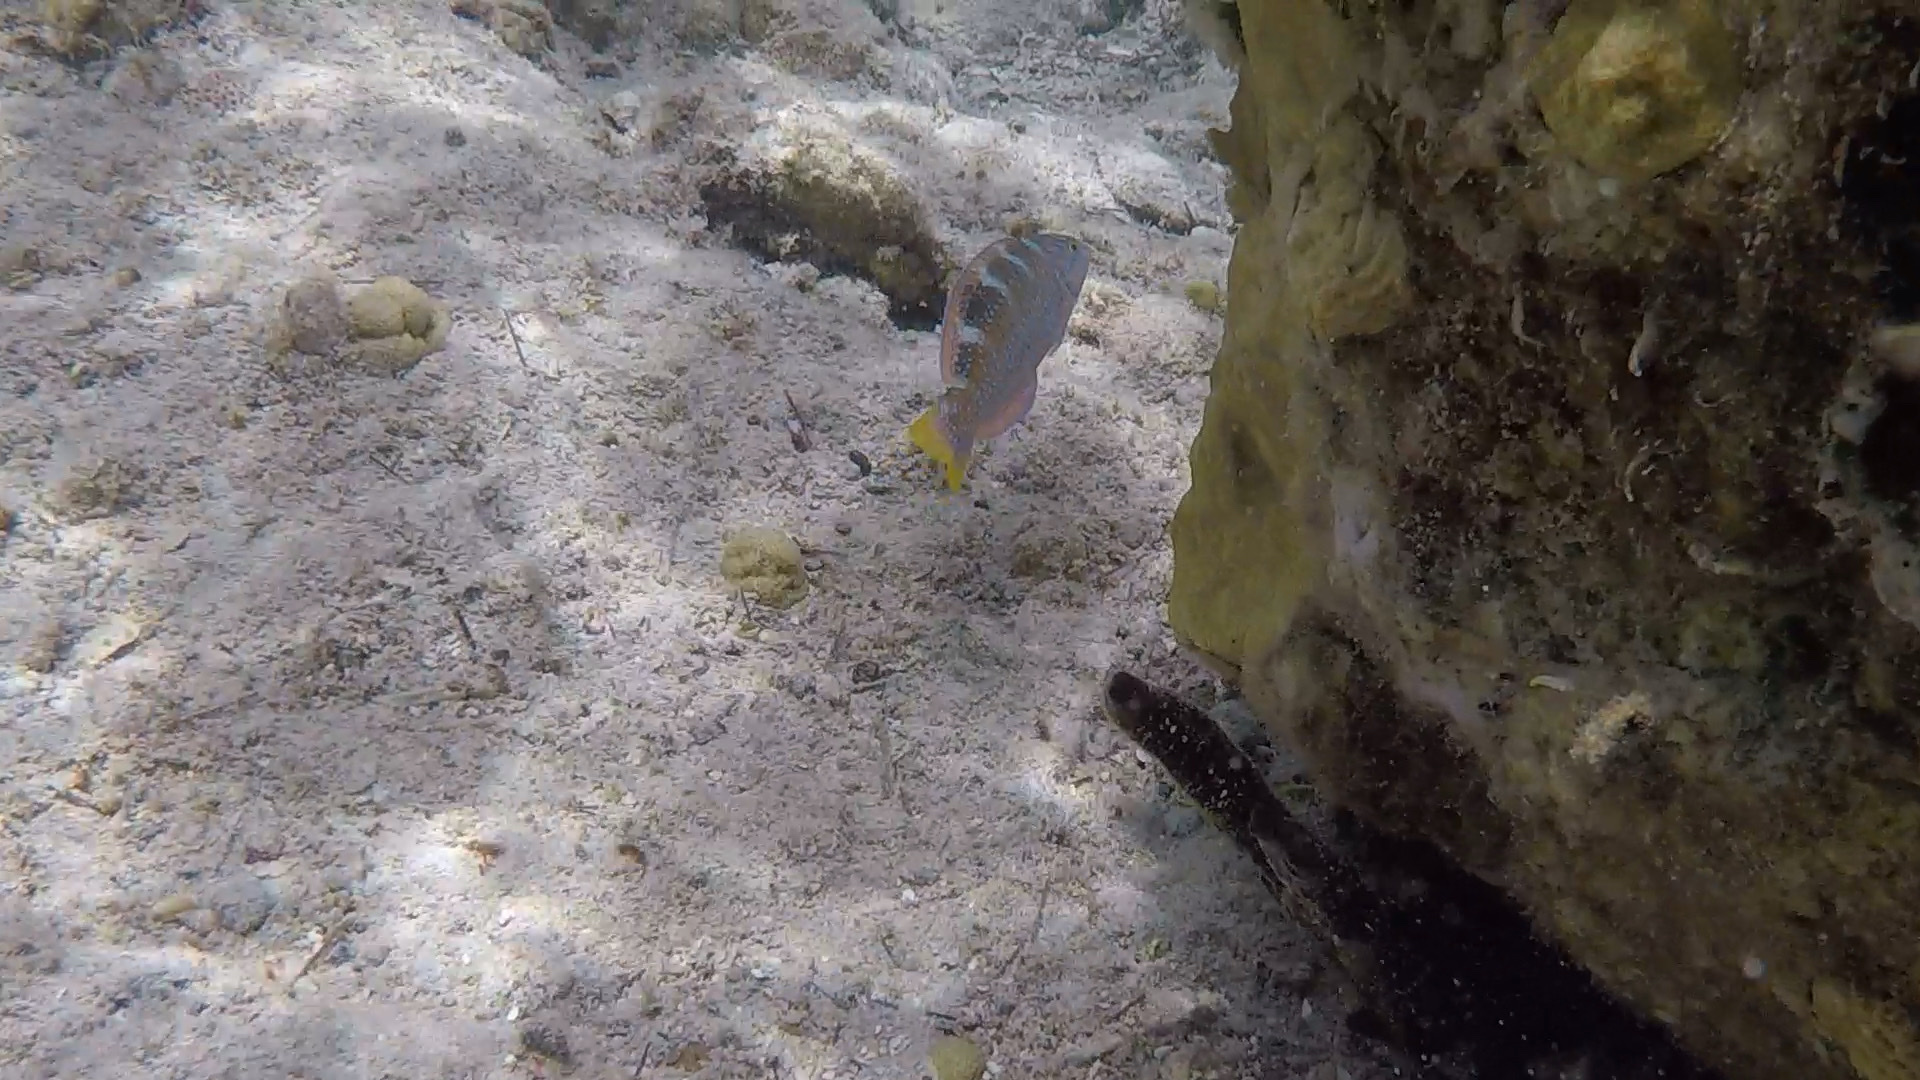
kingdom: Animalia
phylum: Chordata
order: Perciformes
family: Labridae
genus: Halichoeres
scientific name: Halichoeres radiatus
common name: Puddingwife
